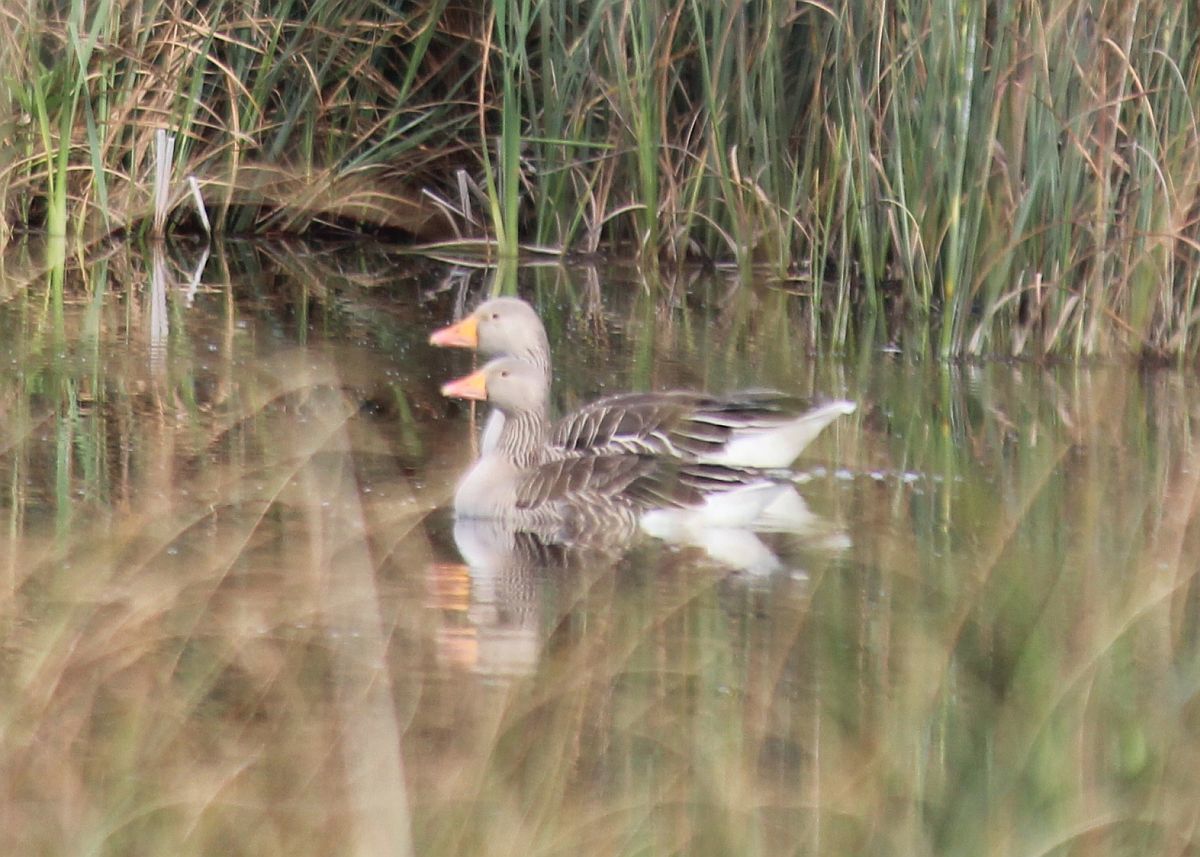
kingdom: Animalia
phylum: Chordata
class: Aves
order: Anseriformes
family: Anatidae
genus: Anser
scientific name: Anser anser
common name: Greylag goose
